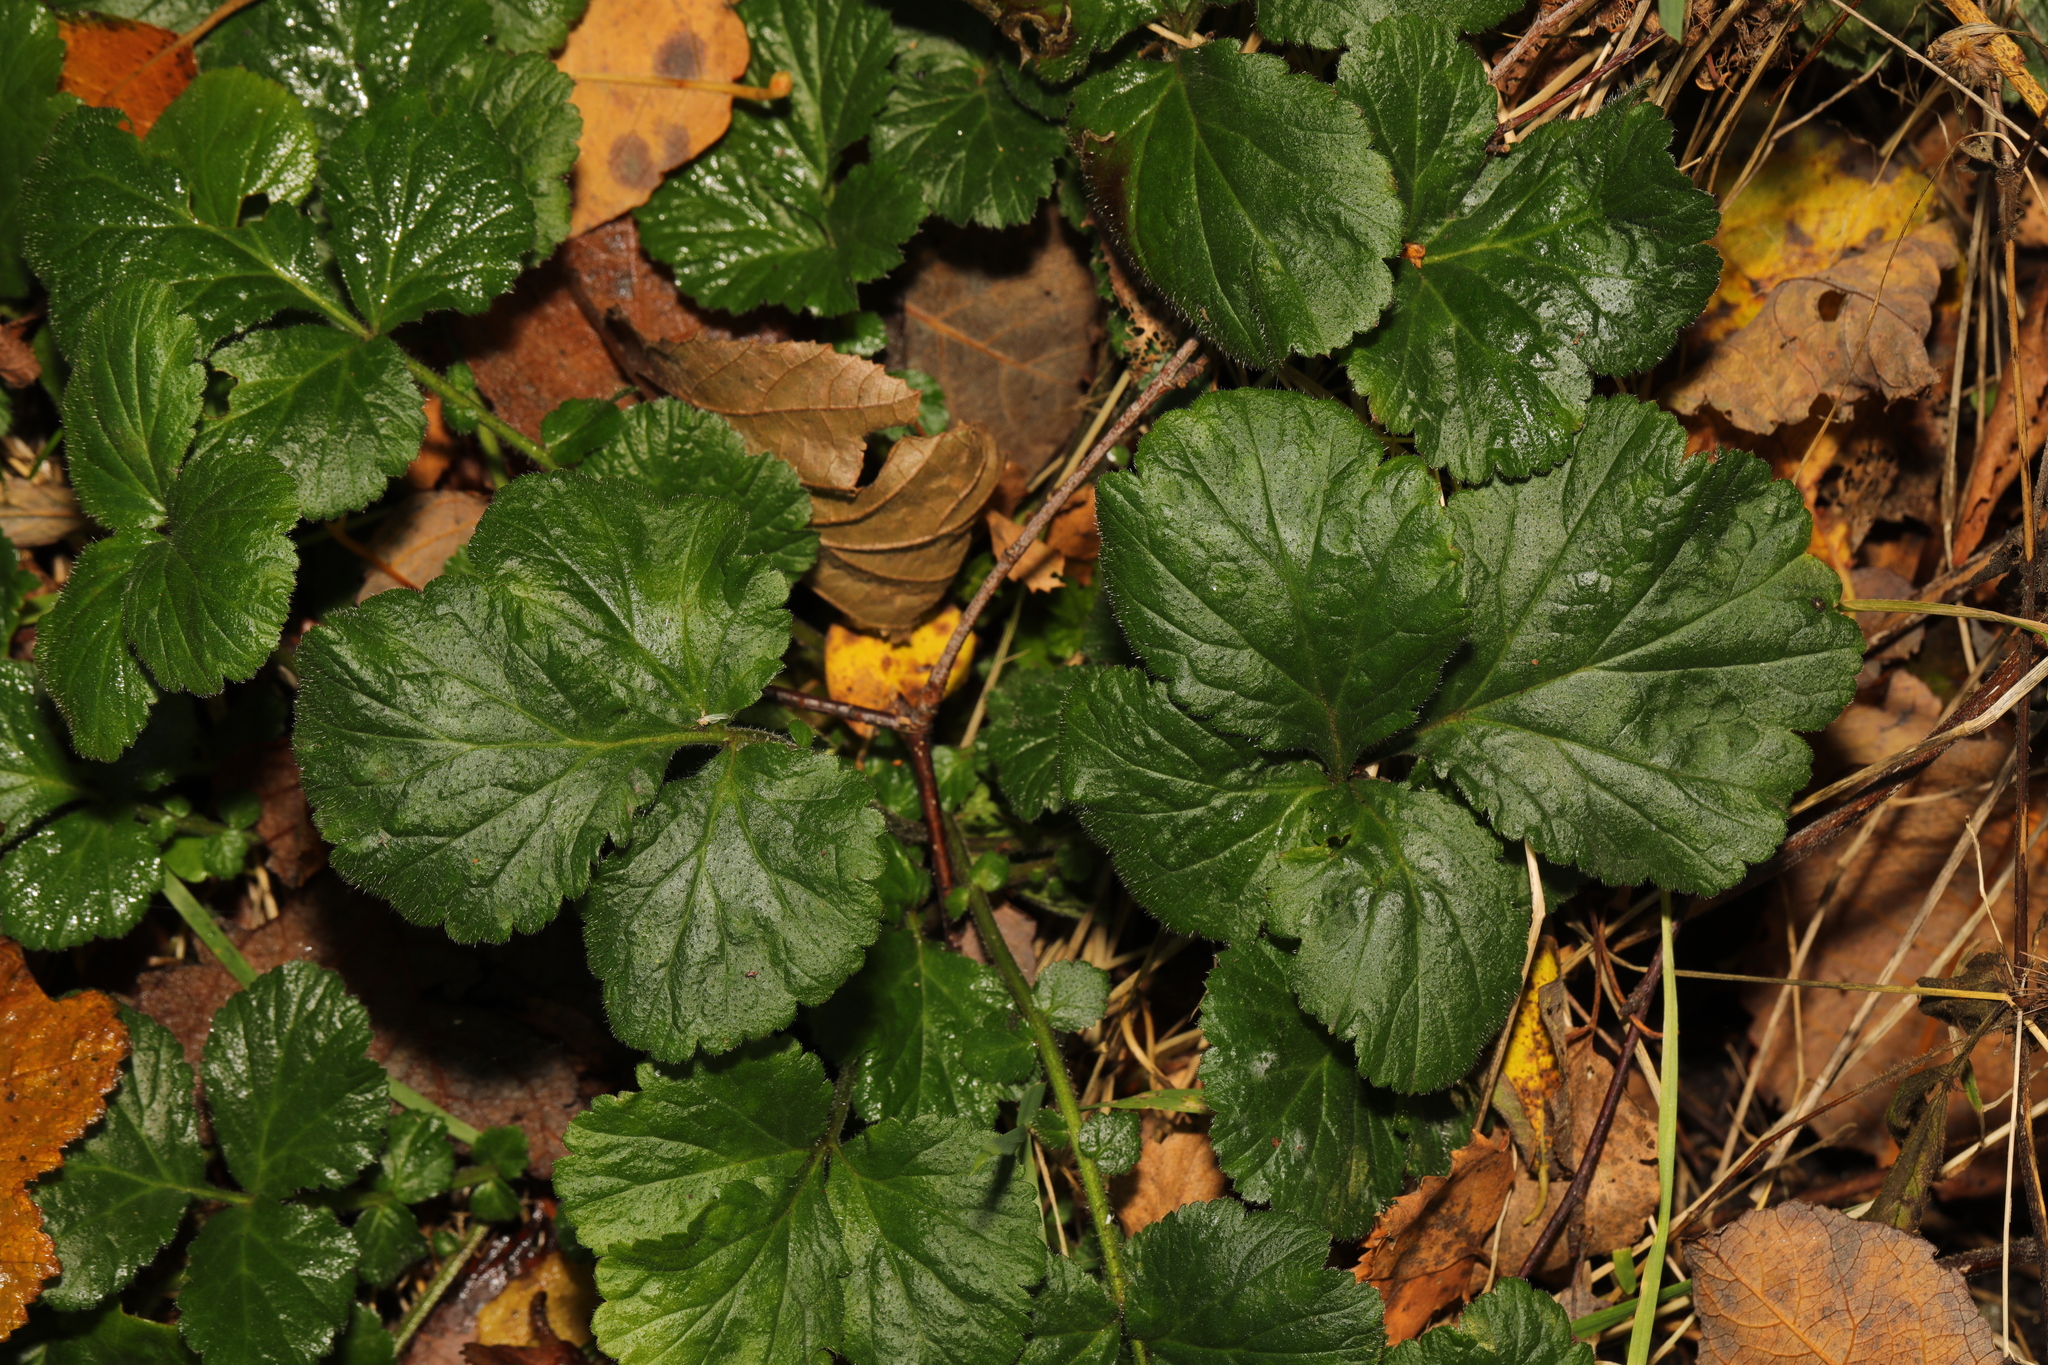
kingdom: Plantae
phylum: Tracheophyta
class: Magnoliopsida
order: Rosales
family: Rosaceae
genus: Geum
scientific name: Geum urbanum
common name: Wood avens
